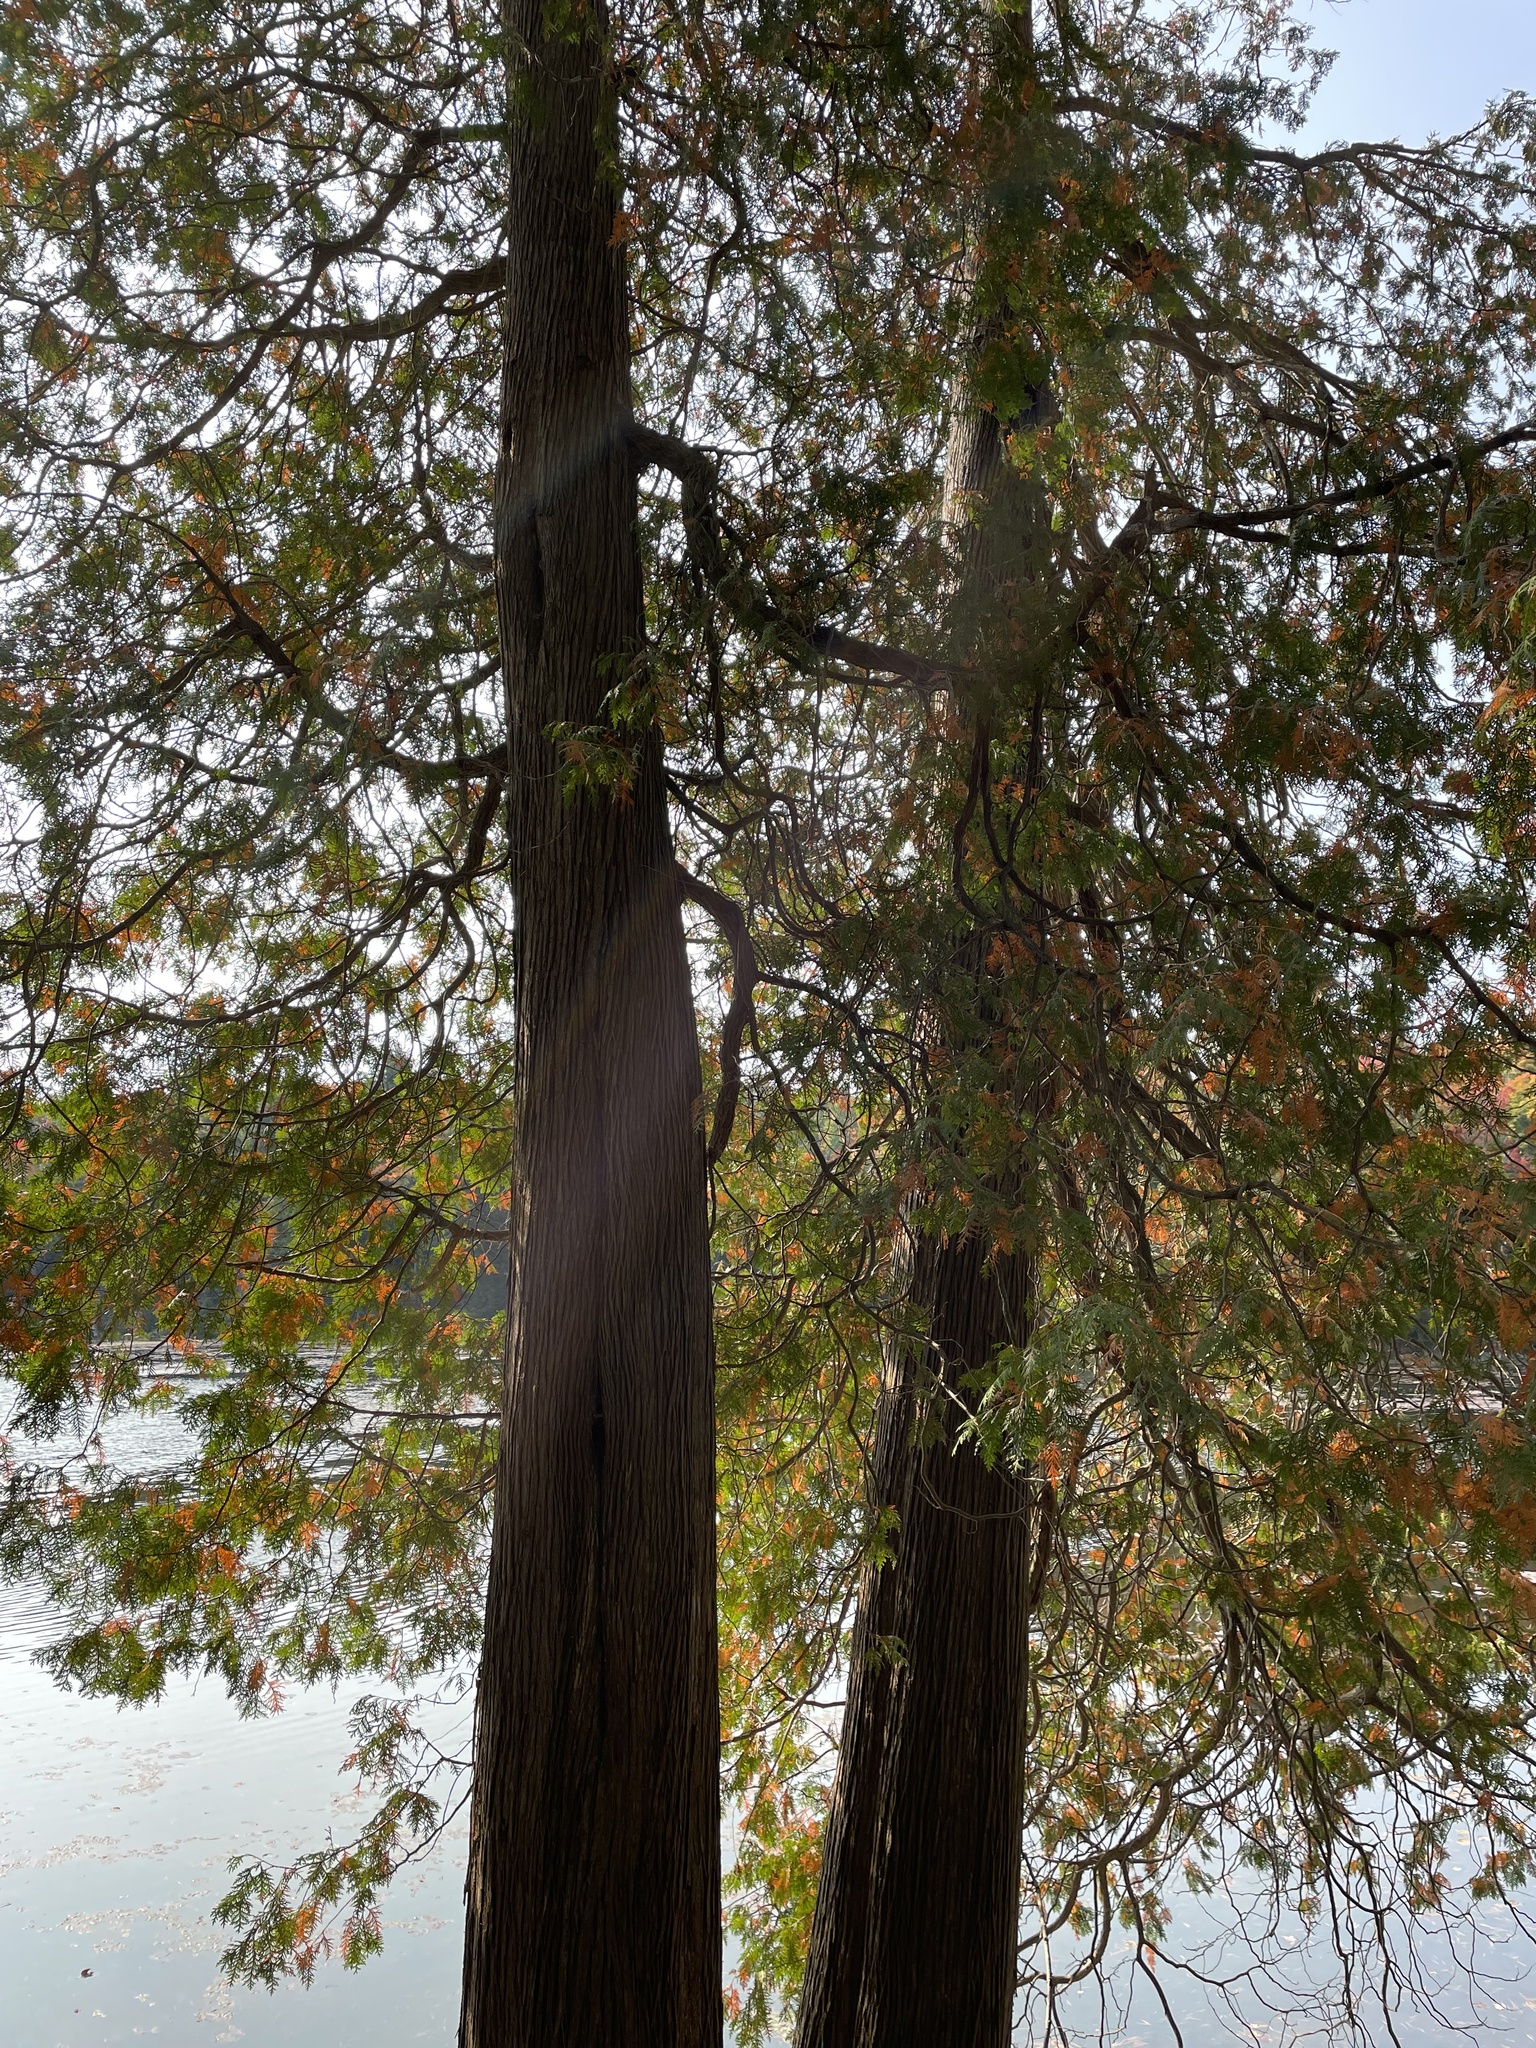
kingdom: Plantae
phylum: Tracheophyta
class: Pinopsida
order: Pinales
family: Cupressaceae
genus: Thuja
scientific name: Thuja occidentalis
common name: Northern white-cedar
